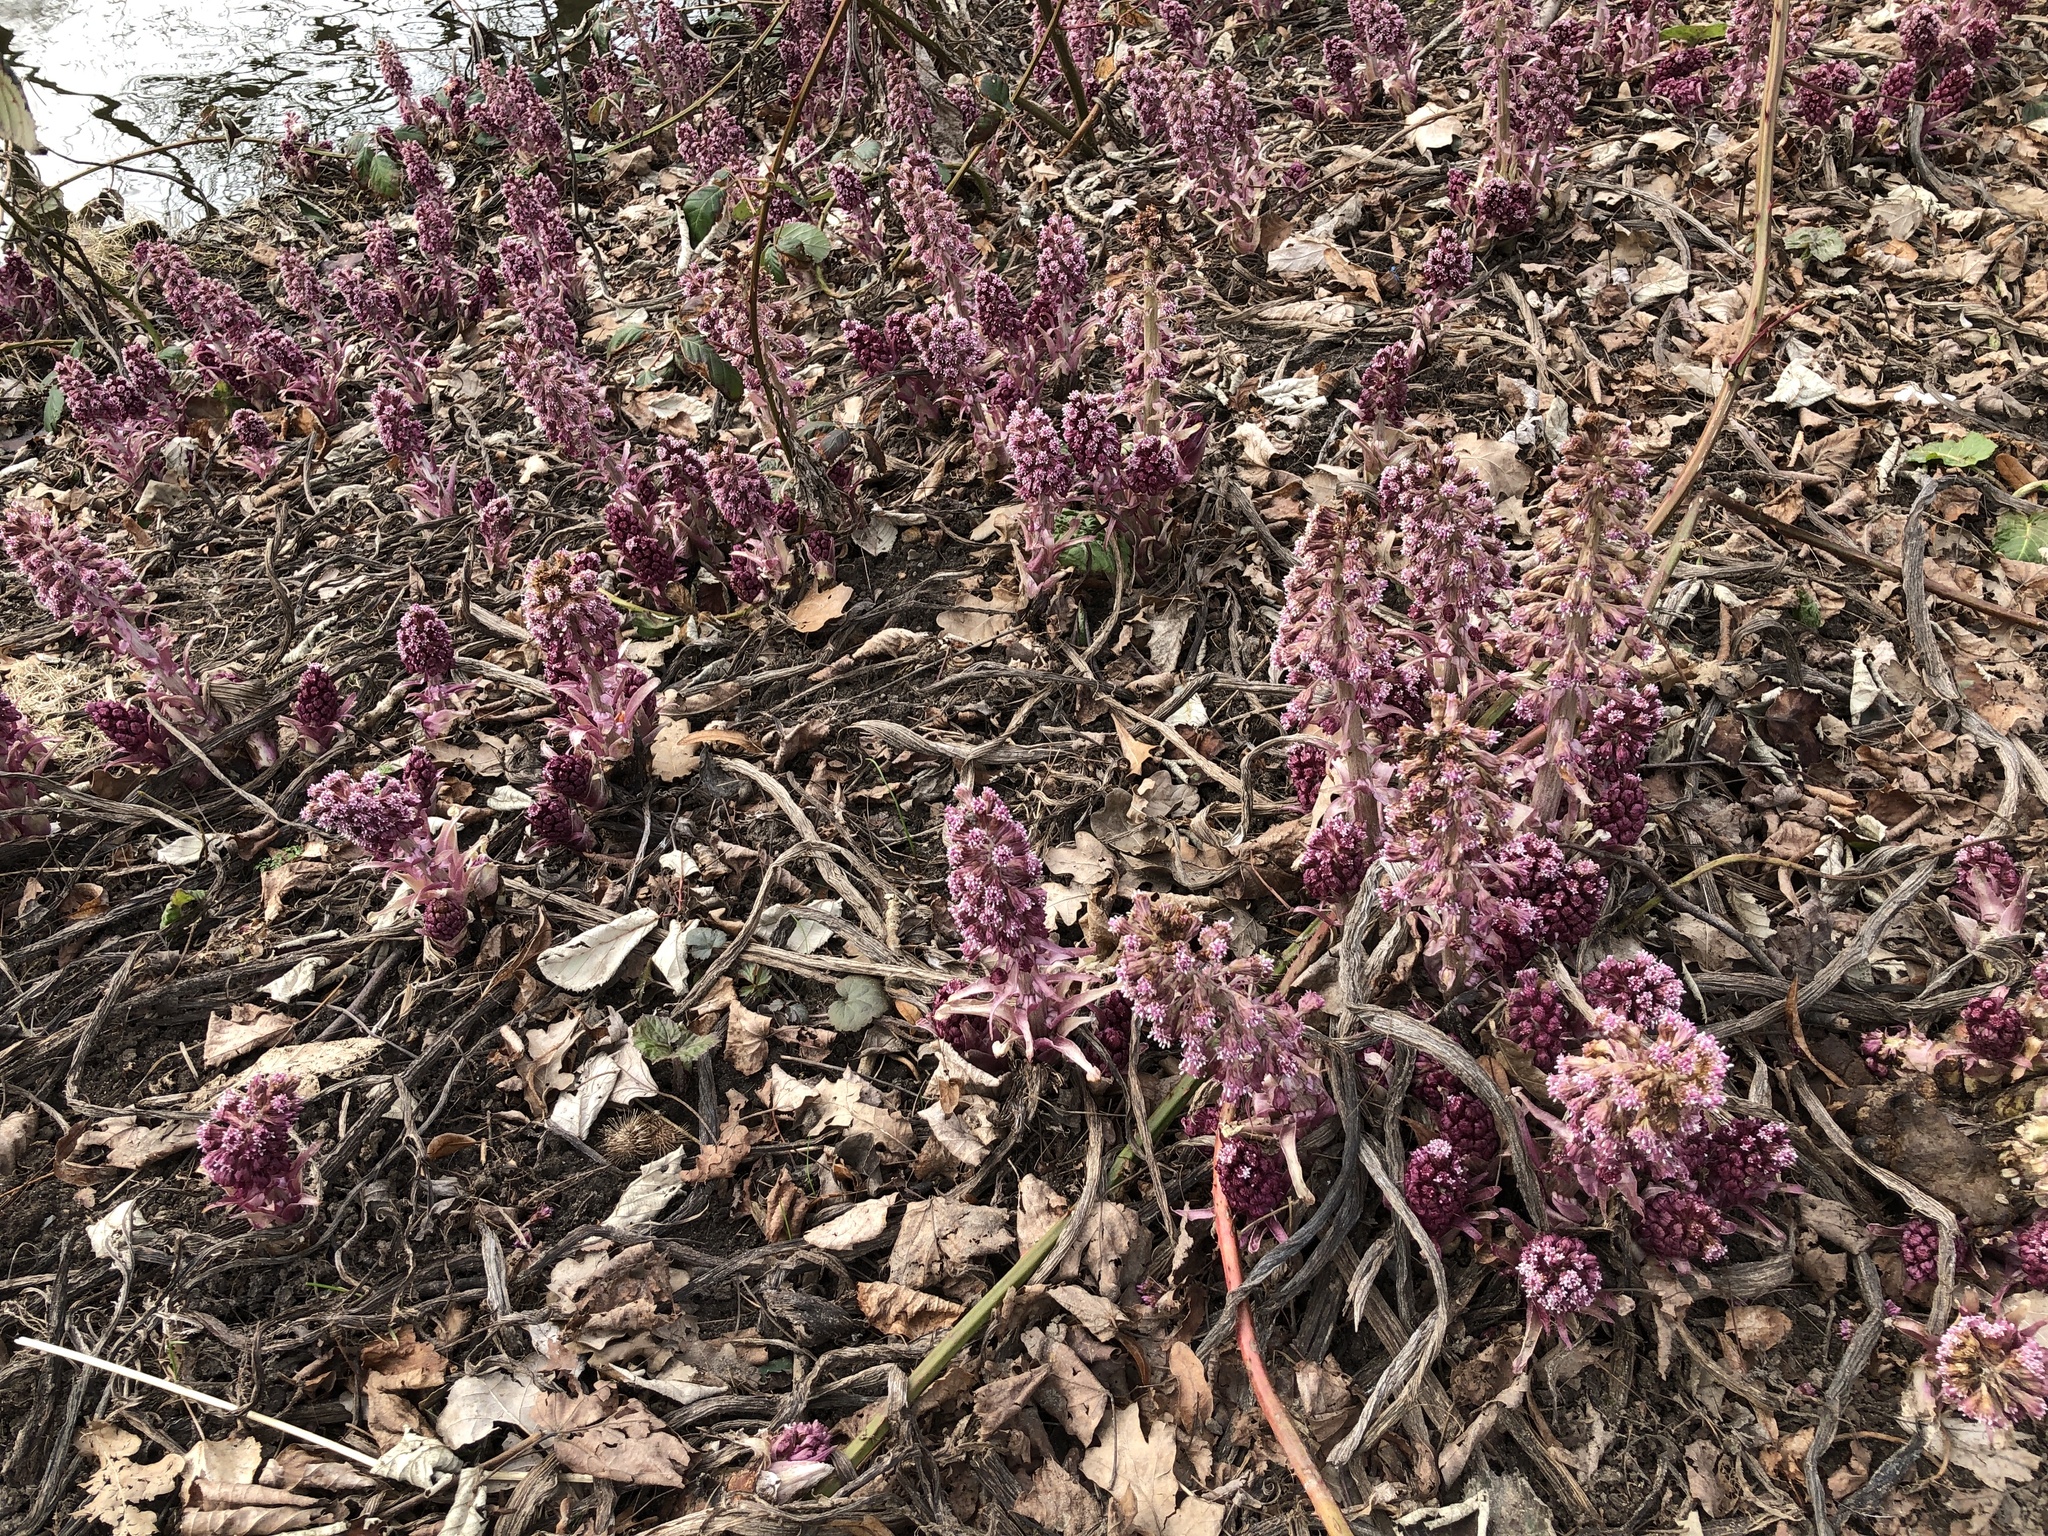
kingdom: Plantae
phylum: Tracheophyta
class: Magnoliopsida
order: Asterales
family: Asteraceae
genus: Petasites
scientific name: Petasites hybridus
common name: Butterbur
